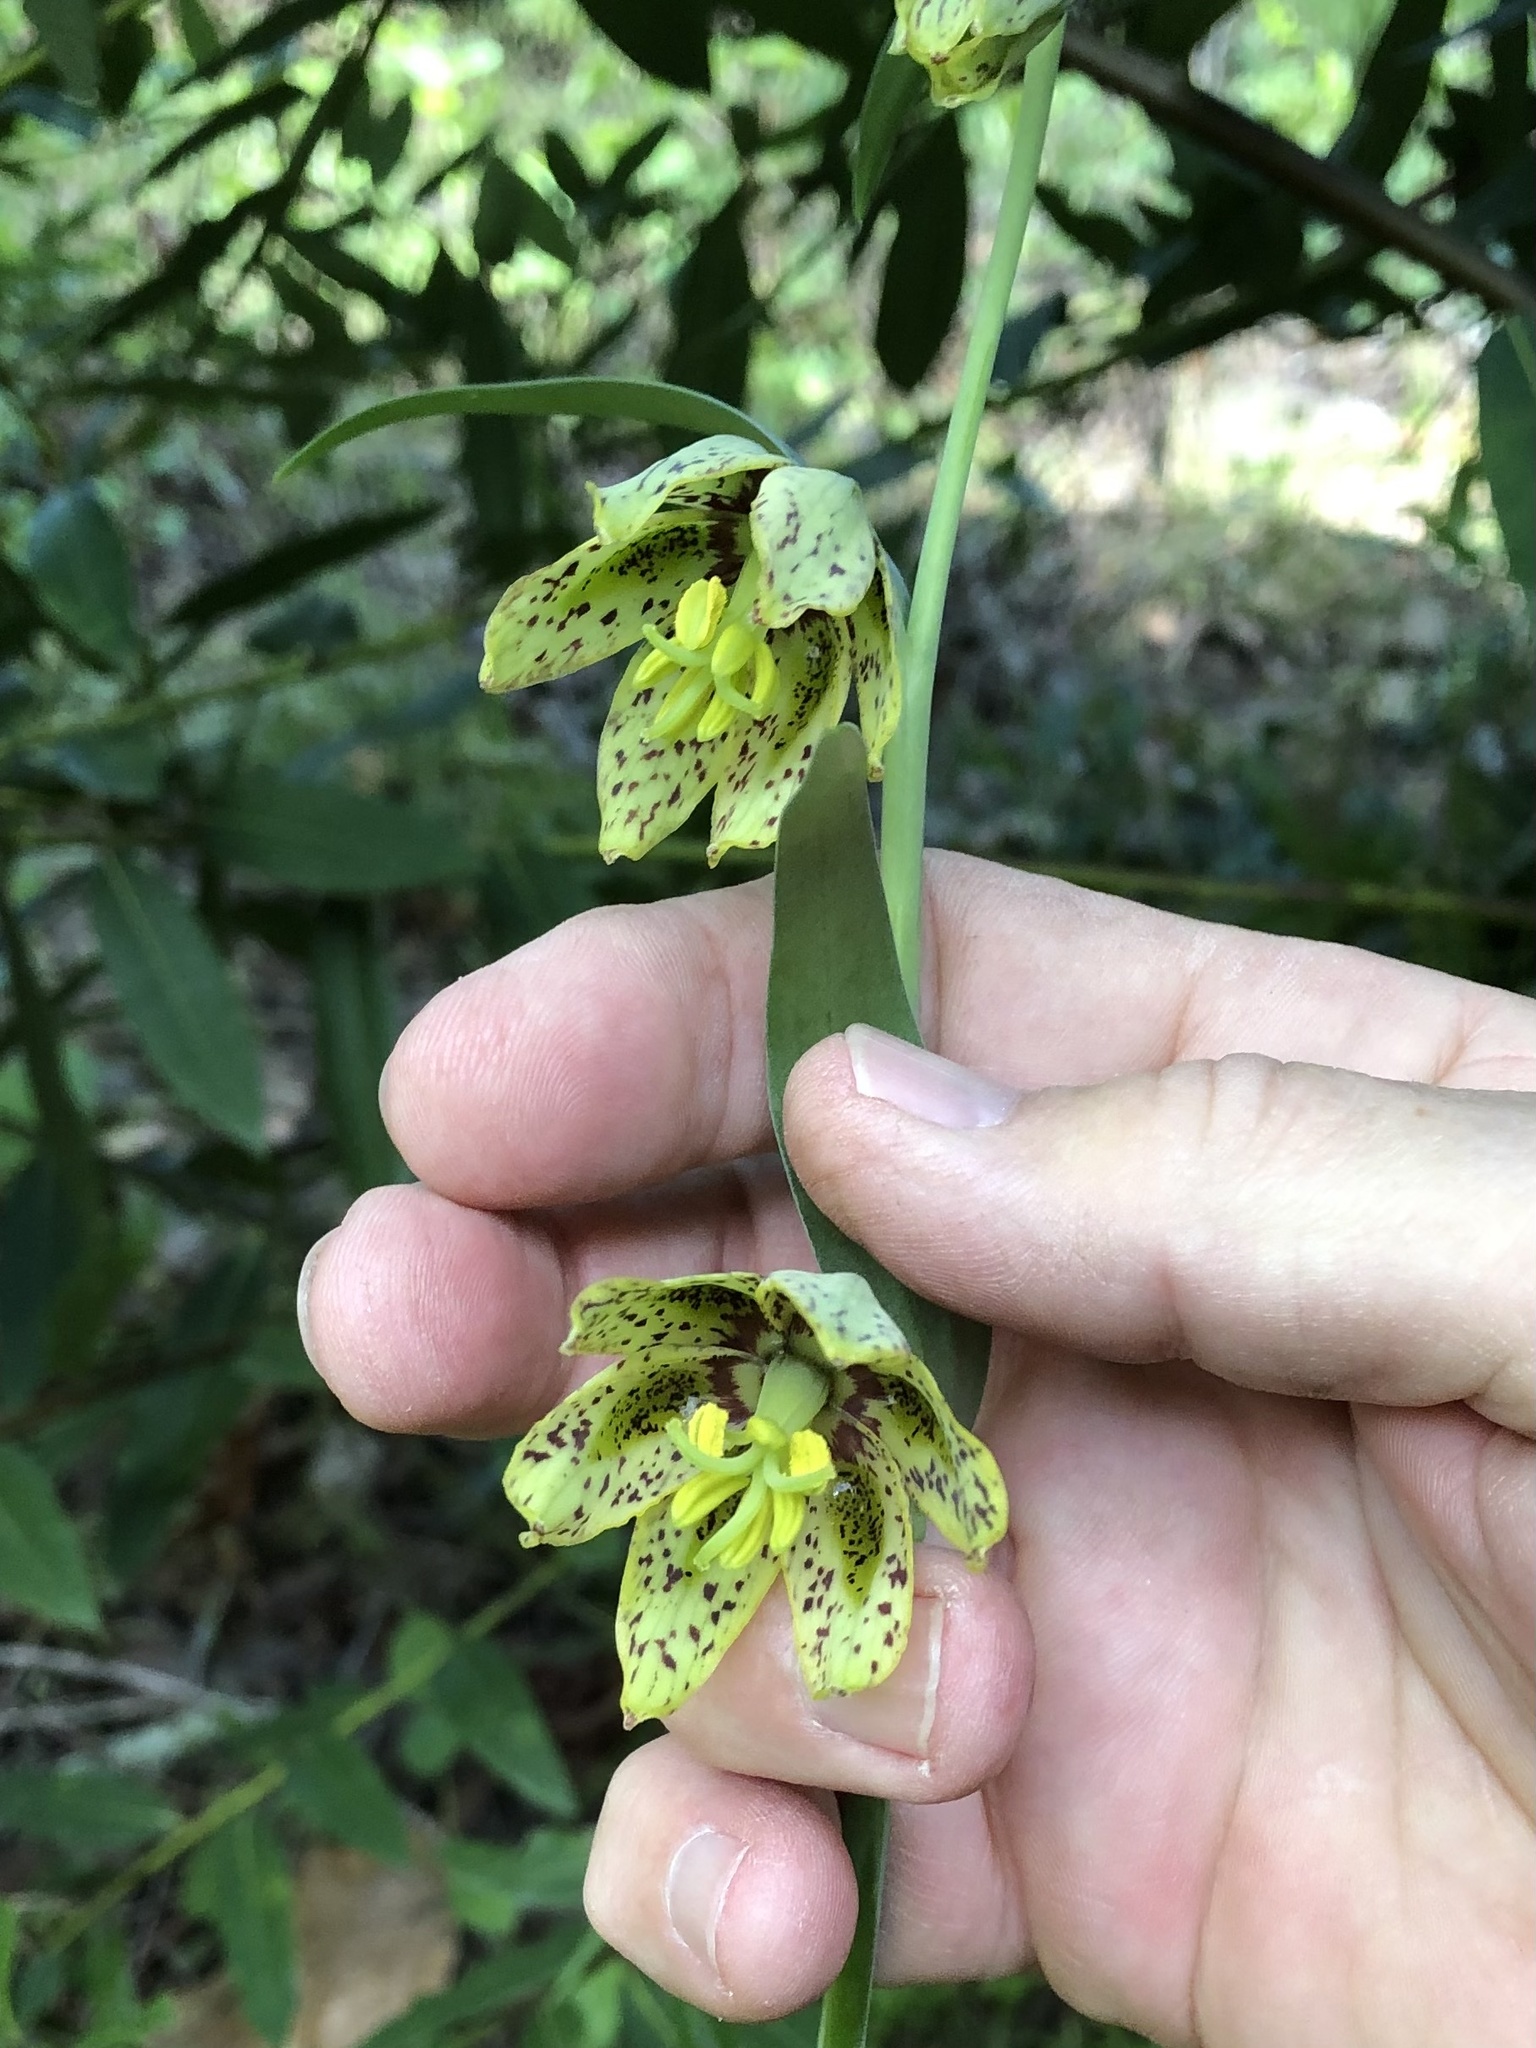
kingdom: Plantae
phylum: Tracheophyta
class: Liliopsida
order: Liliales
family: Liliaceae
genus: Fritillaria
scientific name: Fritillaria affinis
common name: Ojai fritillary
